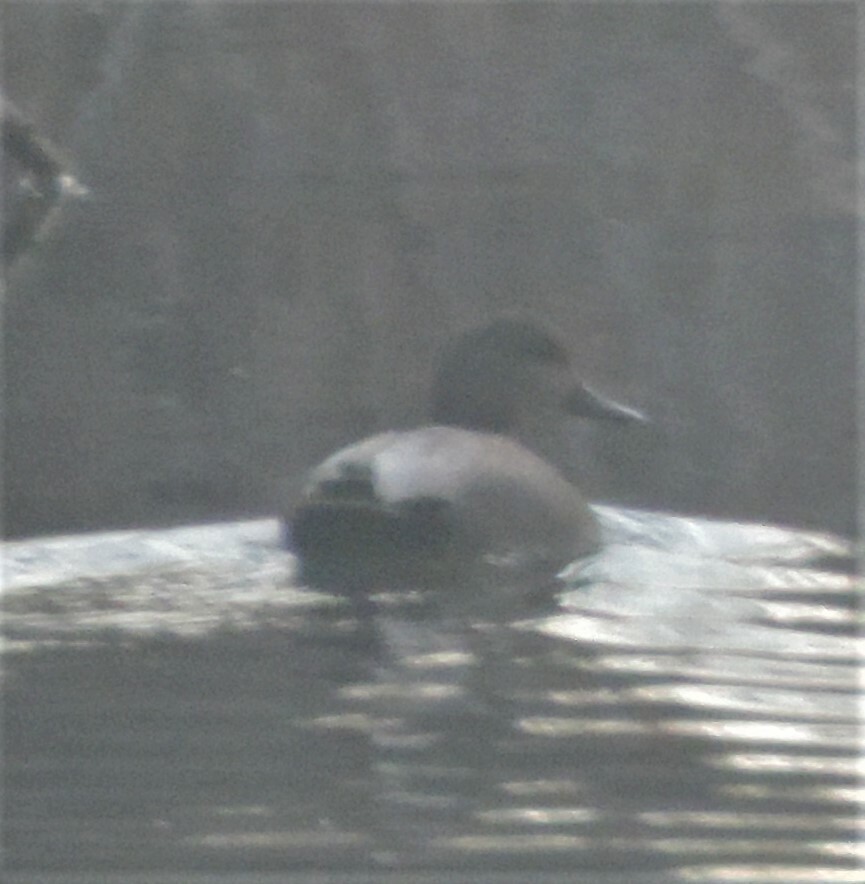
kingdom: Animalia
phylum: Chordata
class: Aves
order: Anseriformes
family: Anatidae
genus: Mareca
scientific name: Mareca strepera
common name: Gadwall
